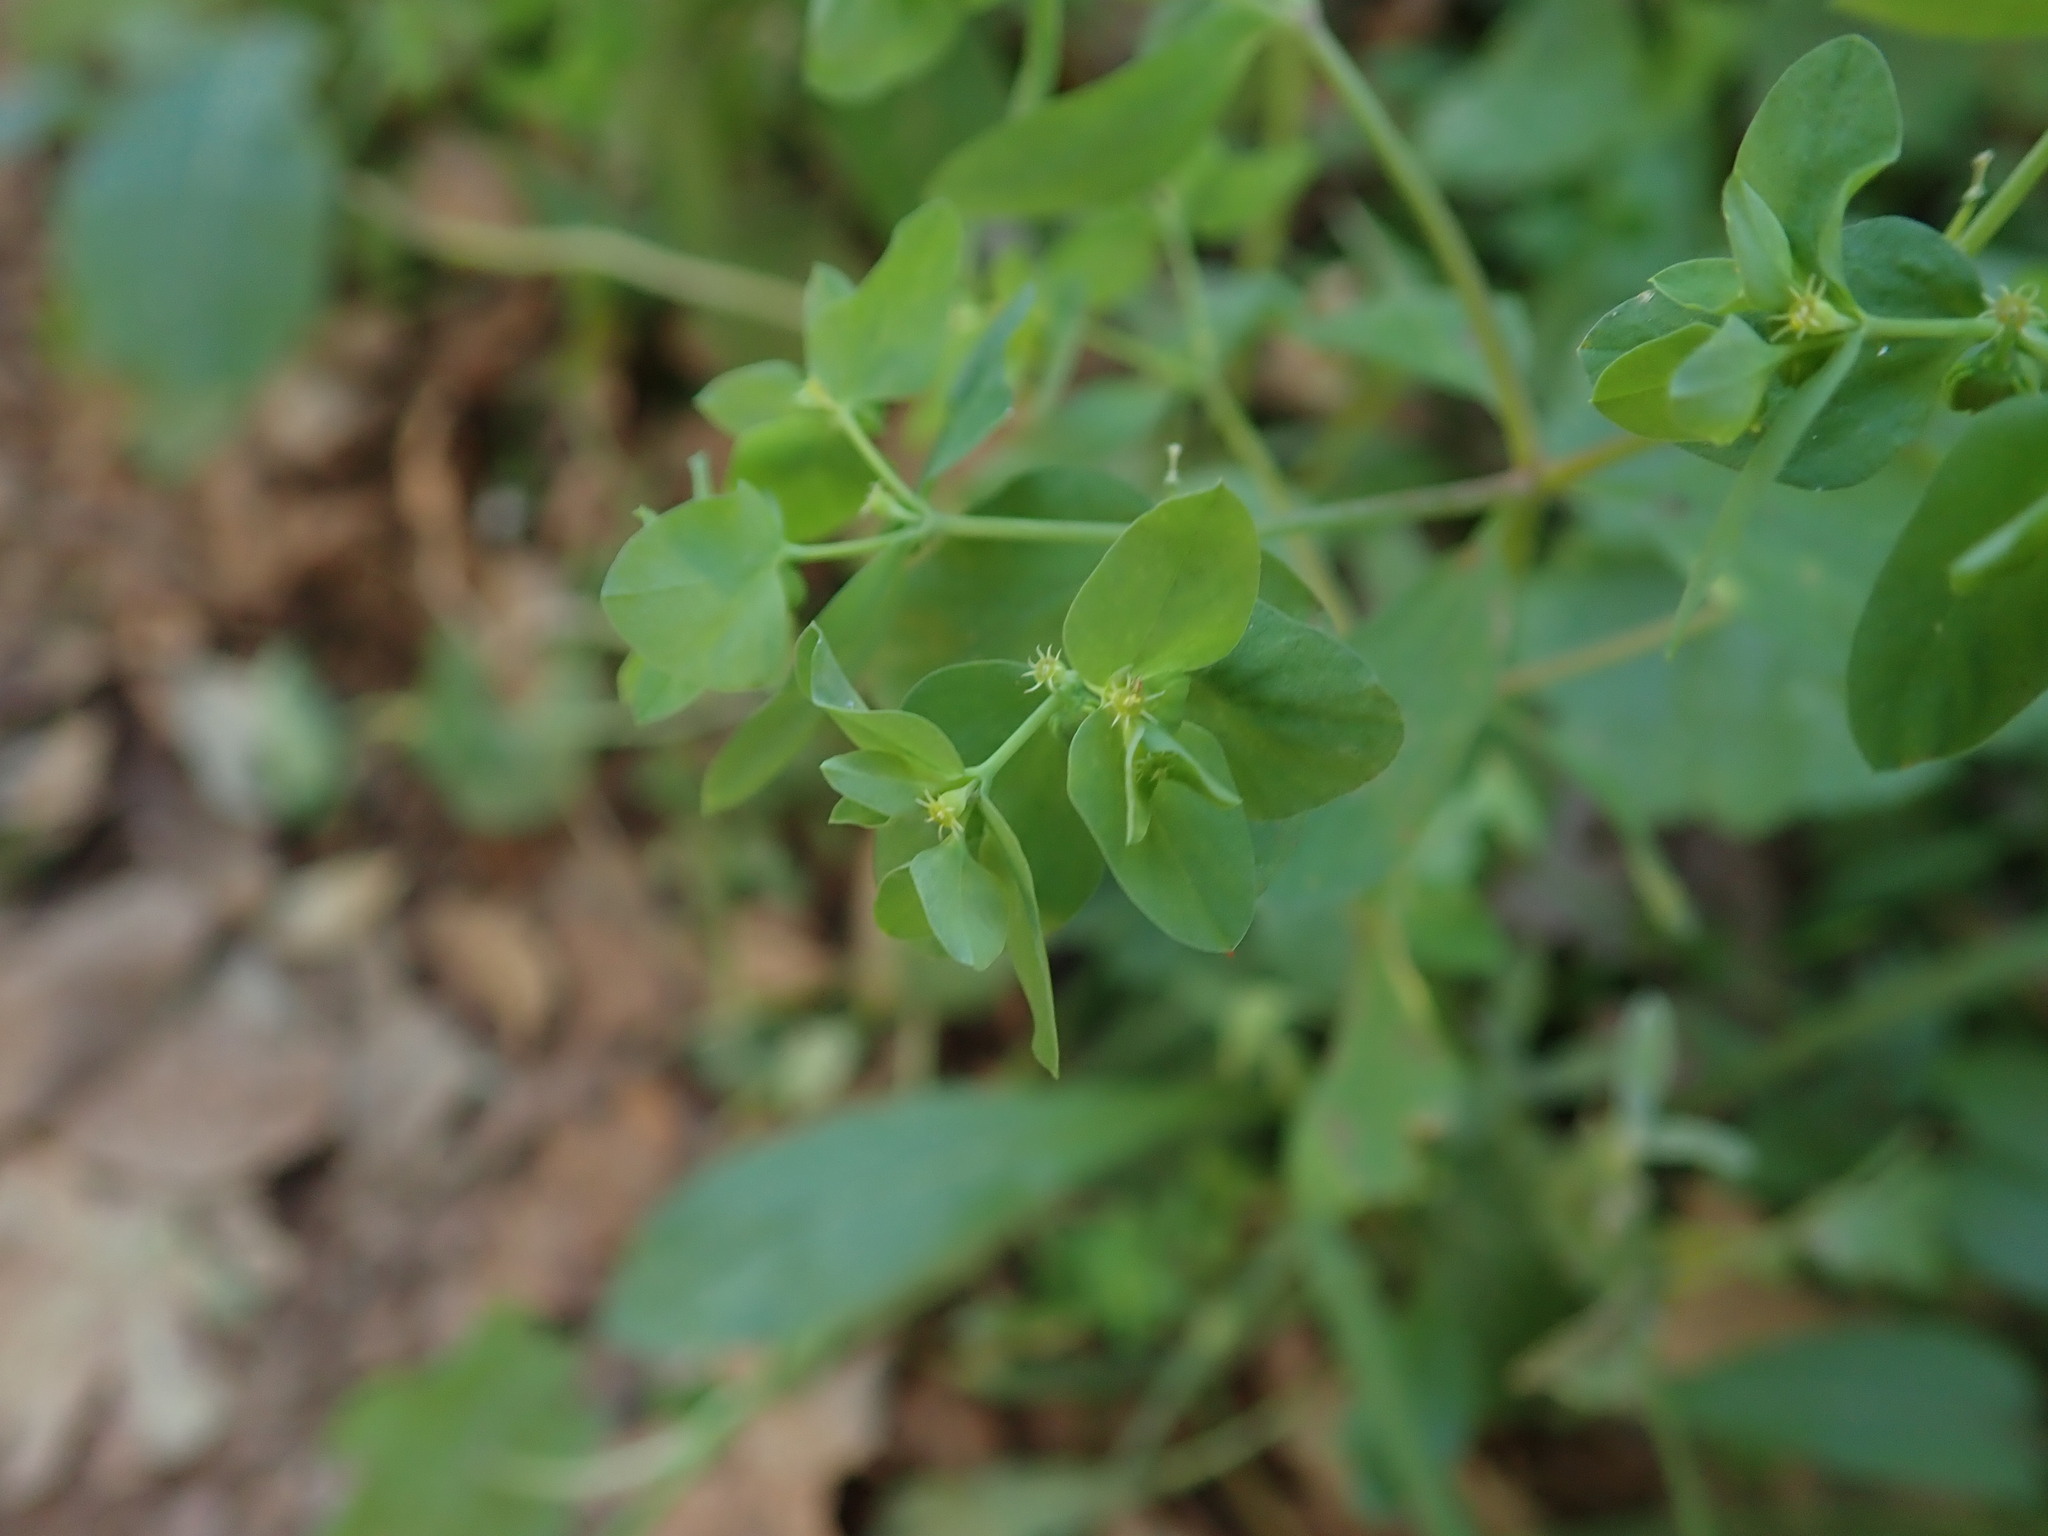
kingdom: Plantae
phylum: Tracheophyta
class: Magnoliopsida
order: Malpighiales
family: Euphorbiaceae
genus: Euphorbia
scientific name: Euphorbia peplus
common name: Petty spurge
